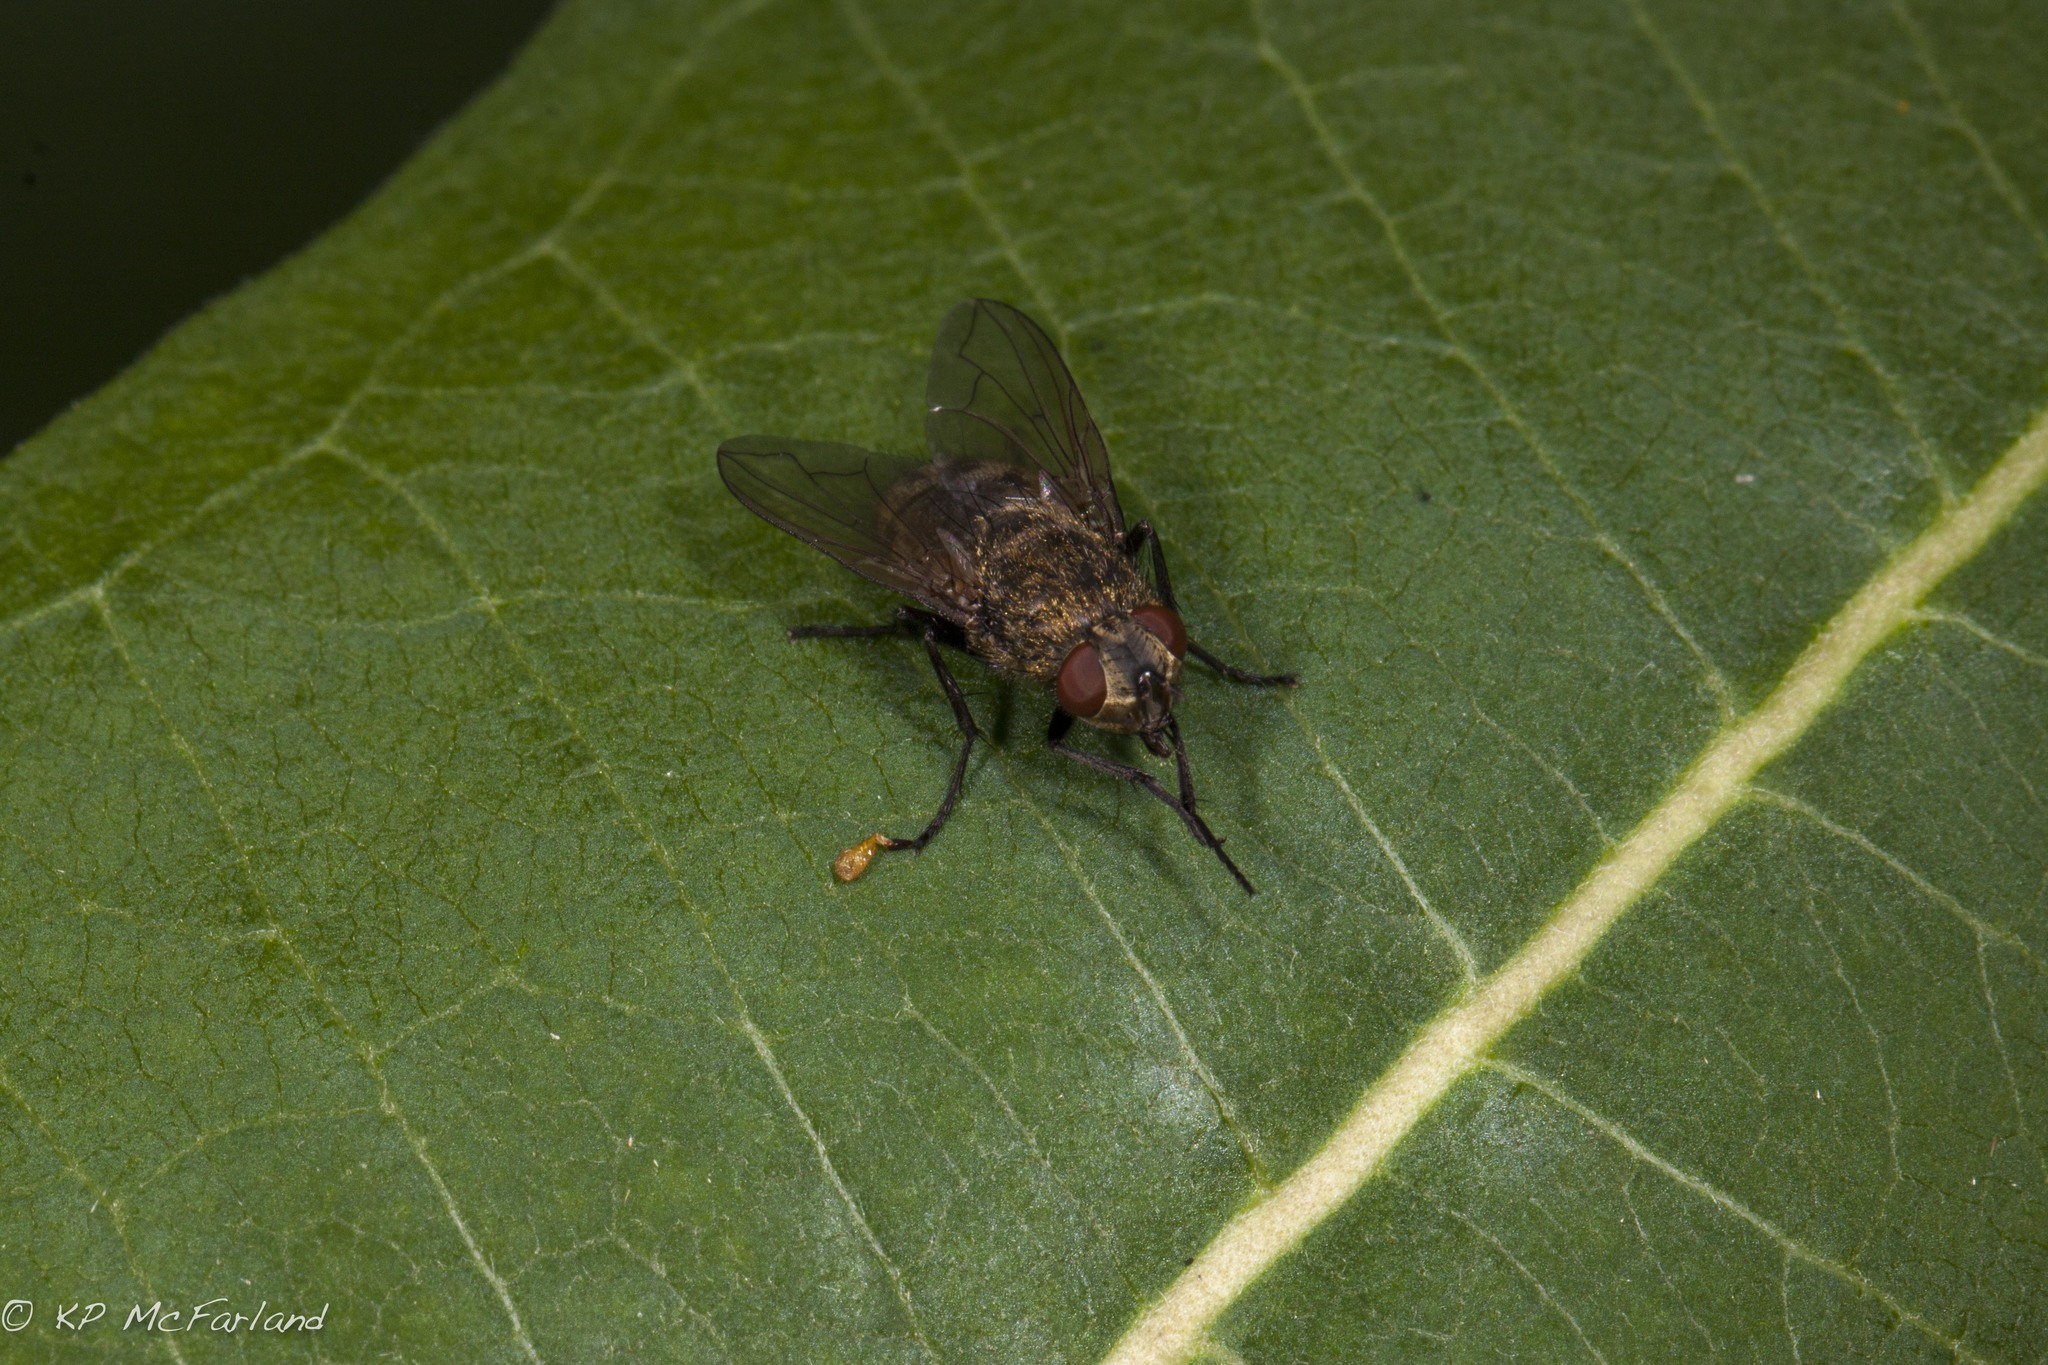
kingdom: Animalia
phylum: Arthropoda
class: Insecta
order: Diptera
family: Polleniidae
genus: Pollenia
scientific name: Pollenia
